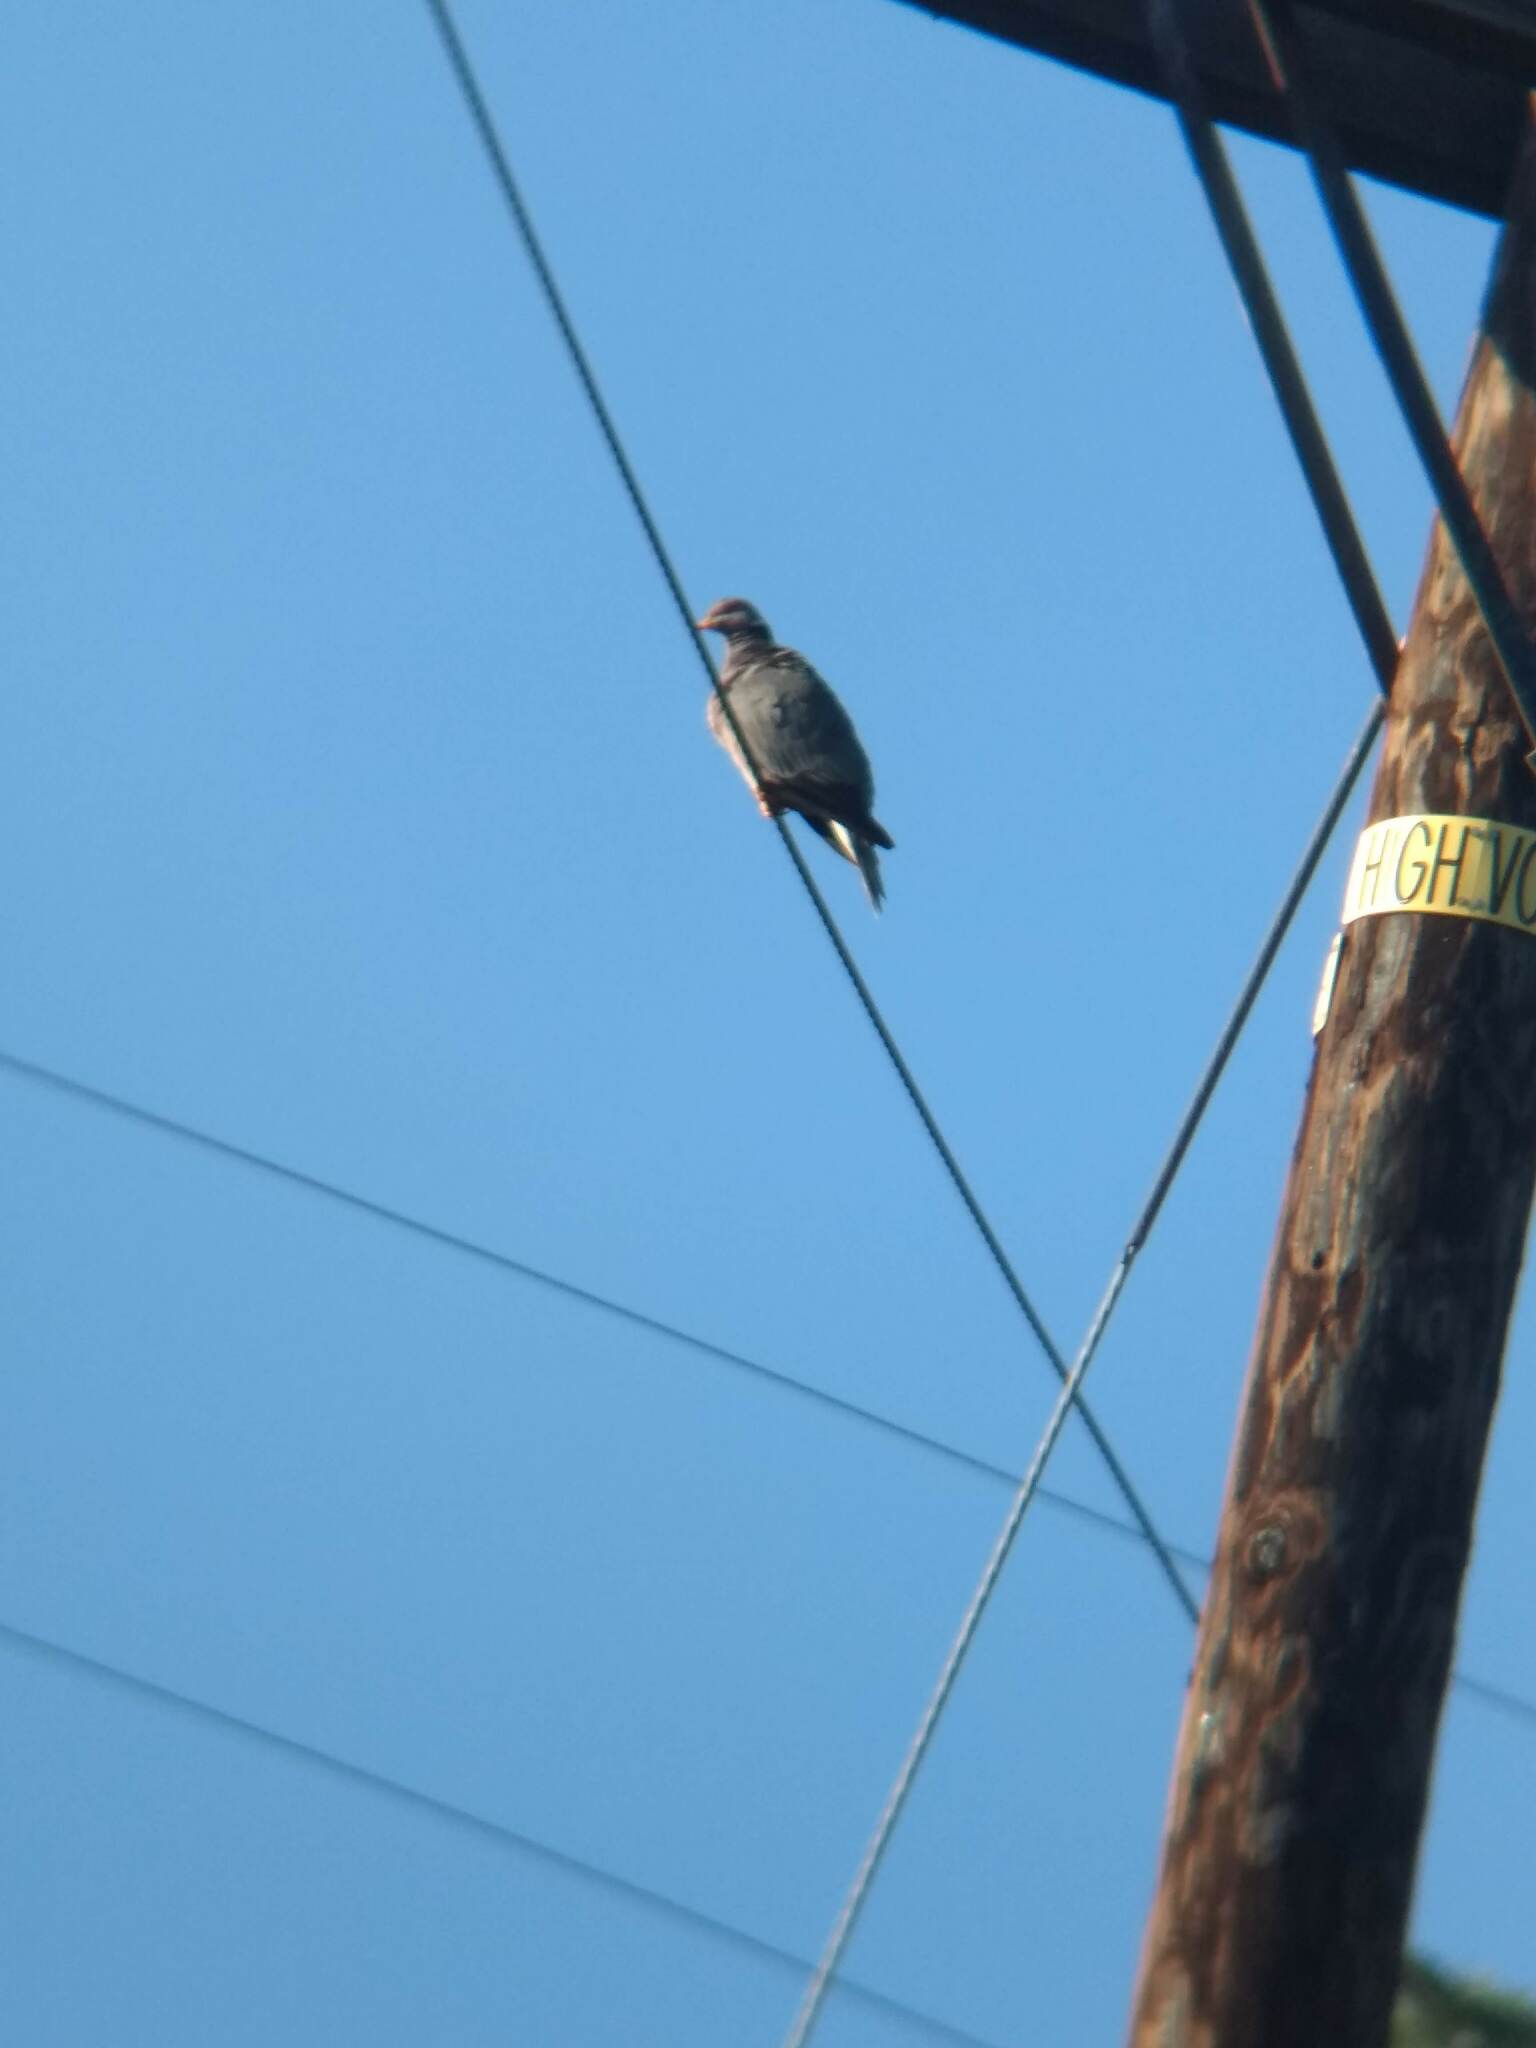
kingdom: Animalia
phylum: Chordata
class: Aves
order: Columbiformes
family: Columbidae
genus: Patagioenas
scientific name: Patagioenas fasciata
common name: Band-tailed pigeon
